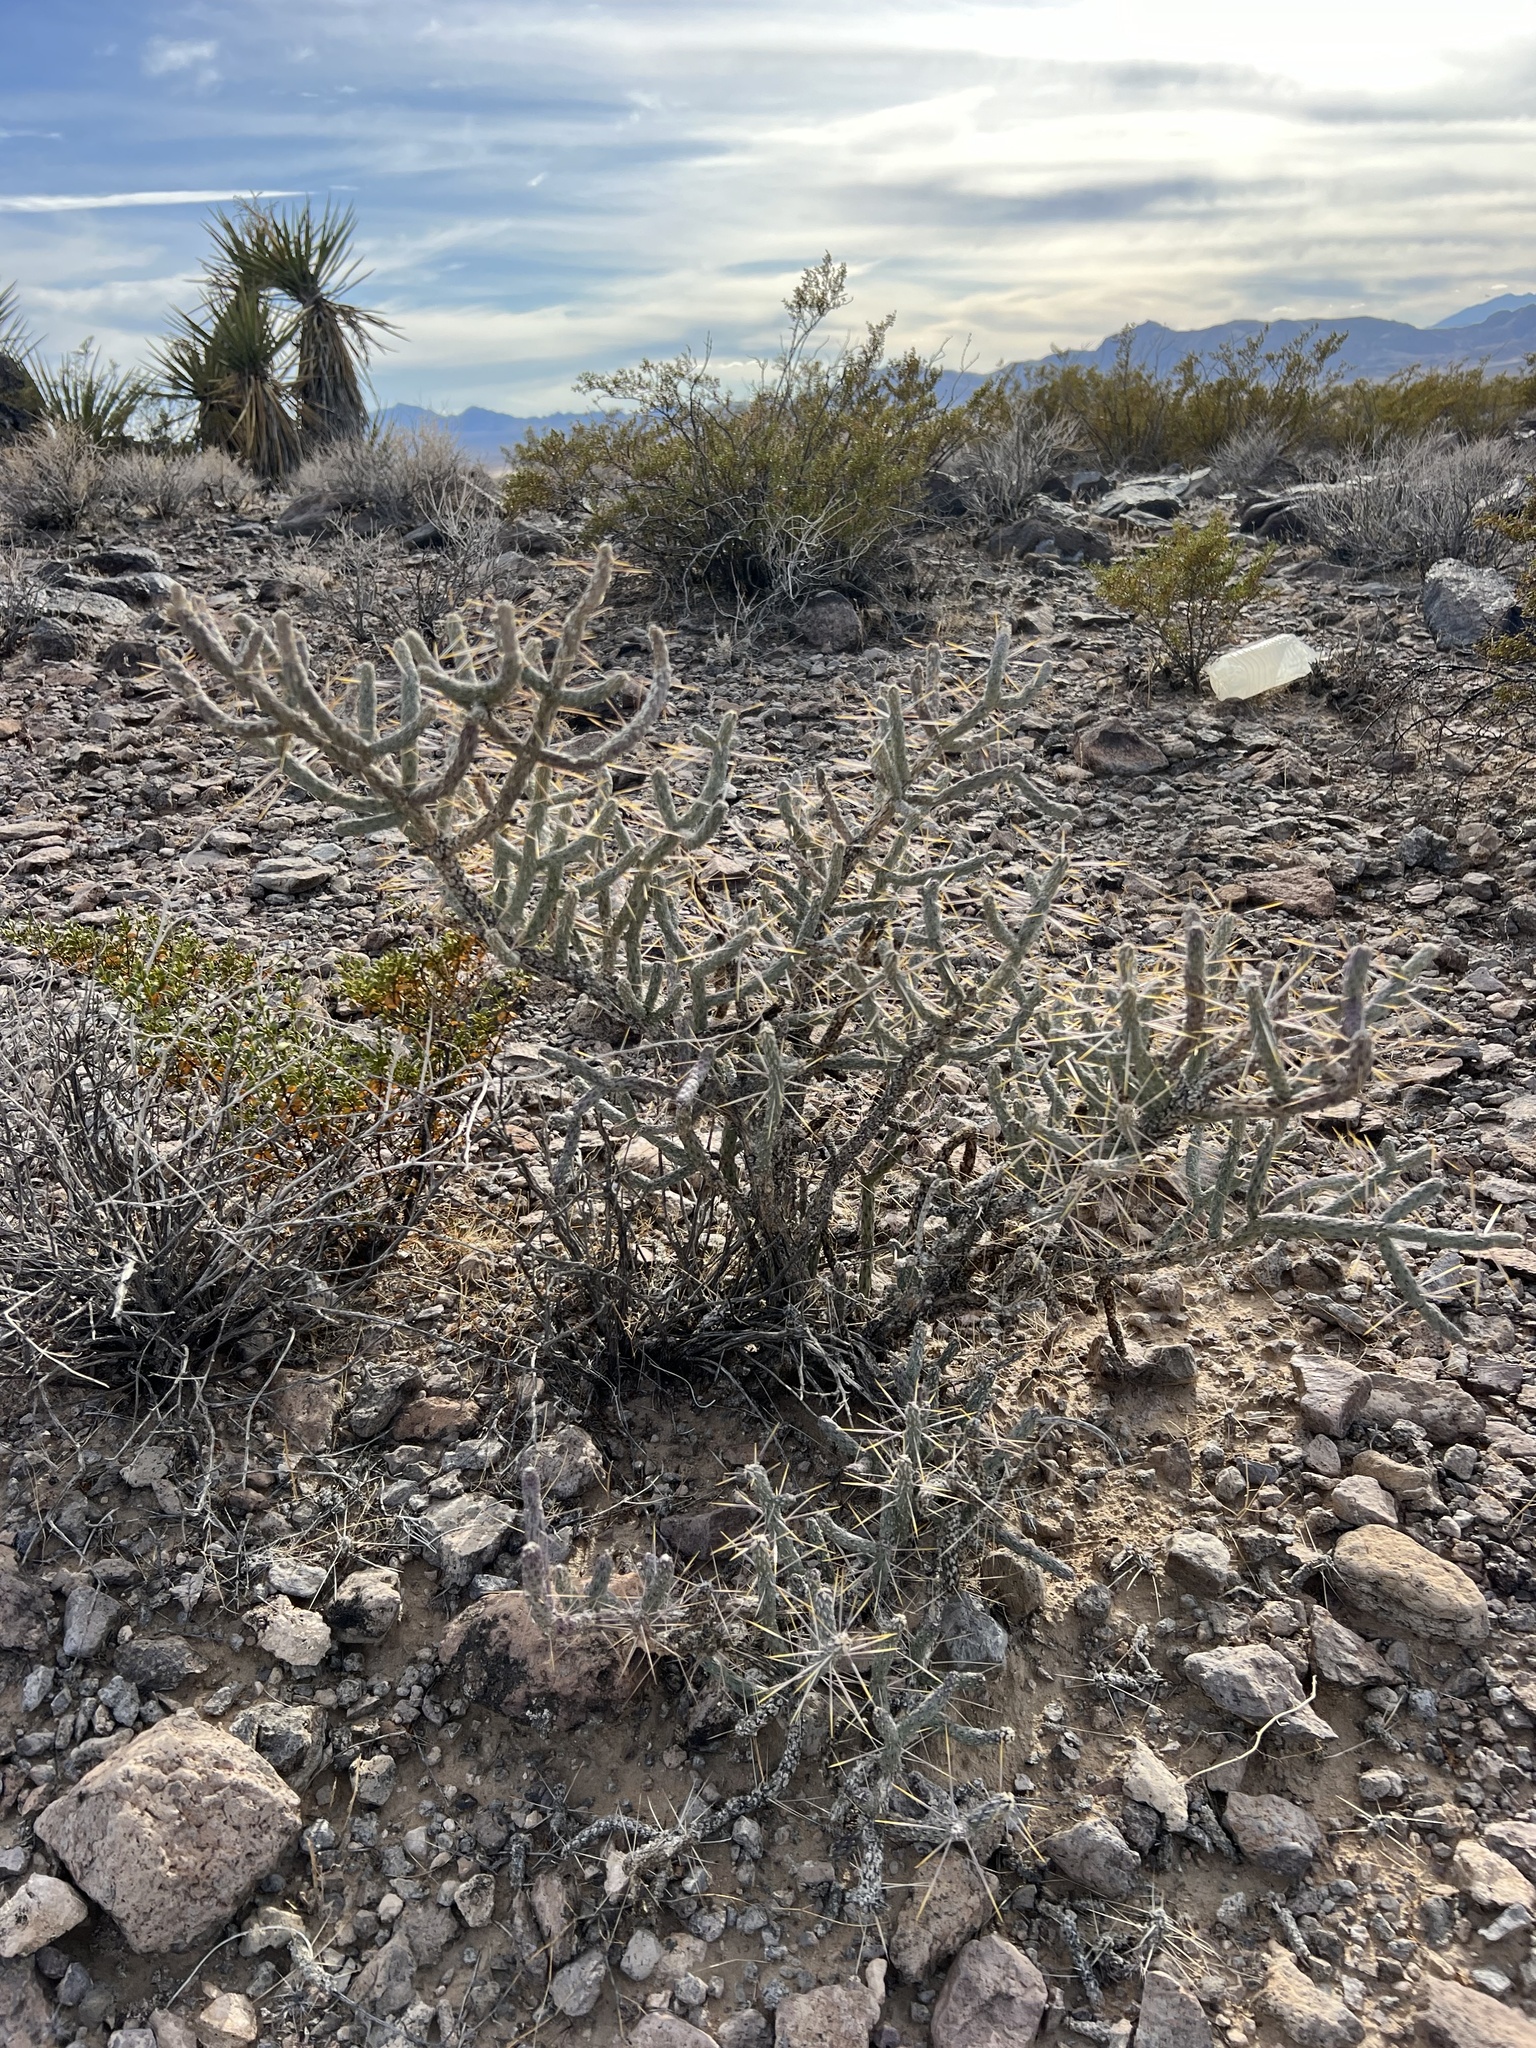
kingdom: Plantae
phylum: Tracheophyta
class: Magnoliopsida
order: Caryophyllales
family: Cactaceae
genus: Cylindropuntia
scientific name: Cylindropuntia ramosissima
